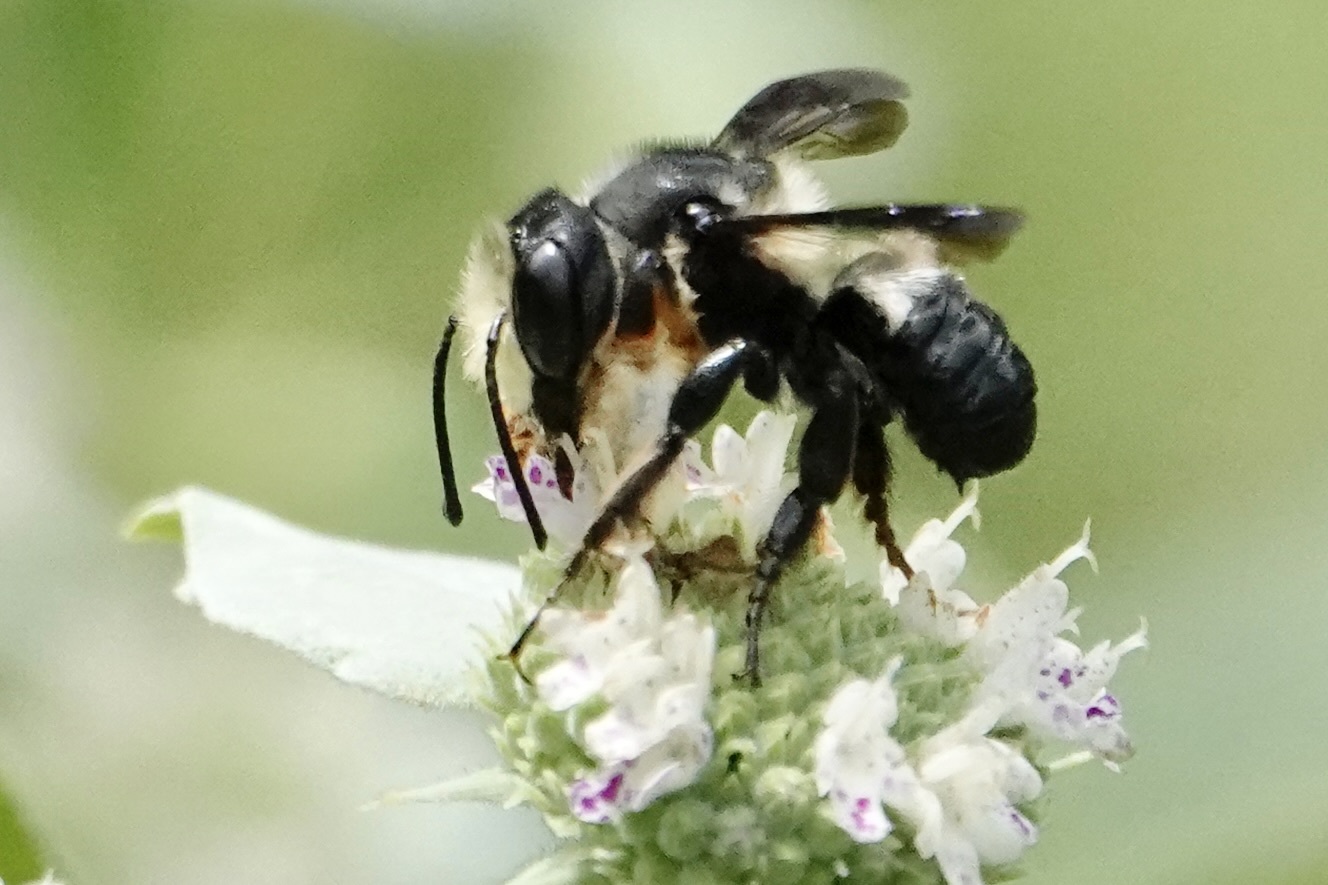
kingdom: Animalia
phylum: Arthropoda
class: Insecta
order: Hymenoptera
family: Megachilidae
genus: Megachile
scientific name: Megachile xylocopoides
